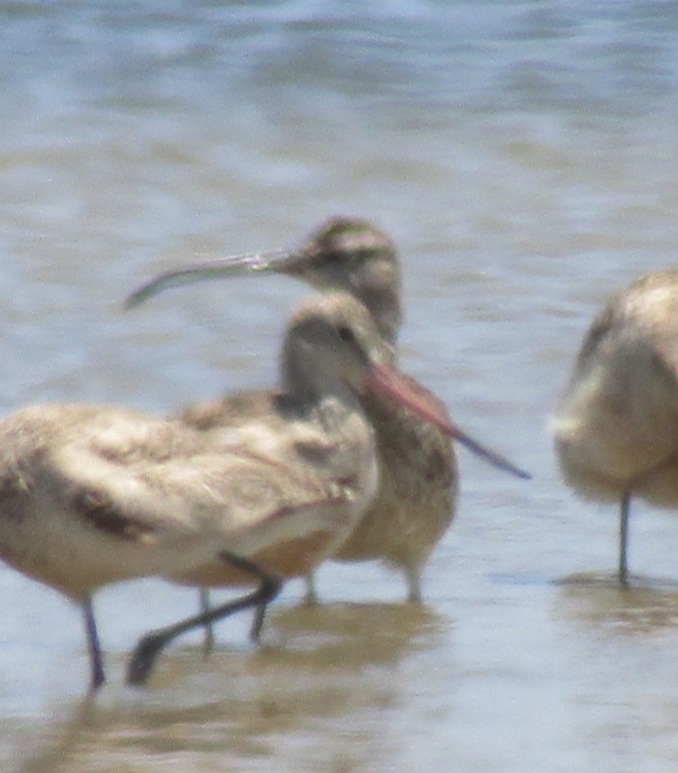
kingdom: Animalia
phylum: Chordata
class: Aves
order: Charadriiformes
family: Scolopacidae
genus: Numenius
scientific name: Numenius phaeopus
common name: Whimbrel
